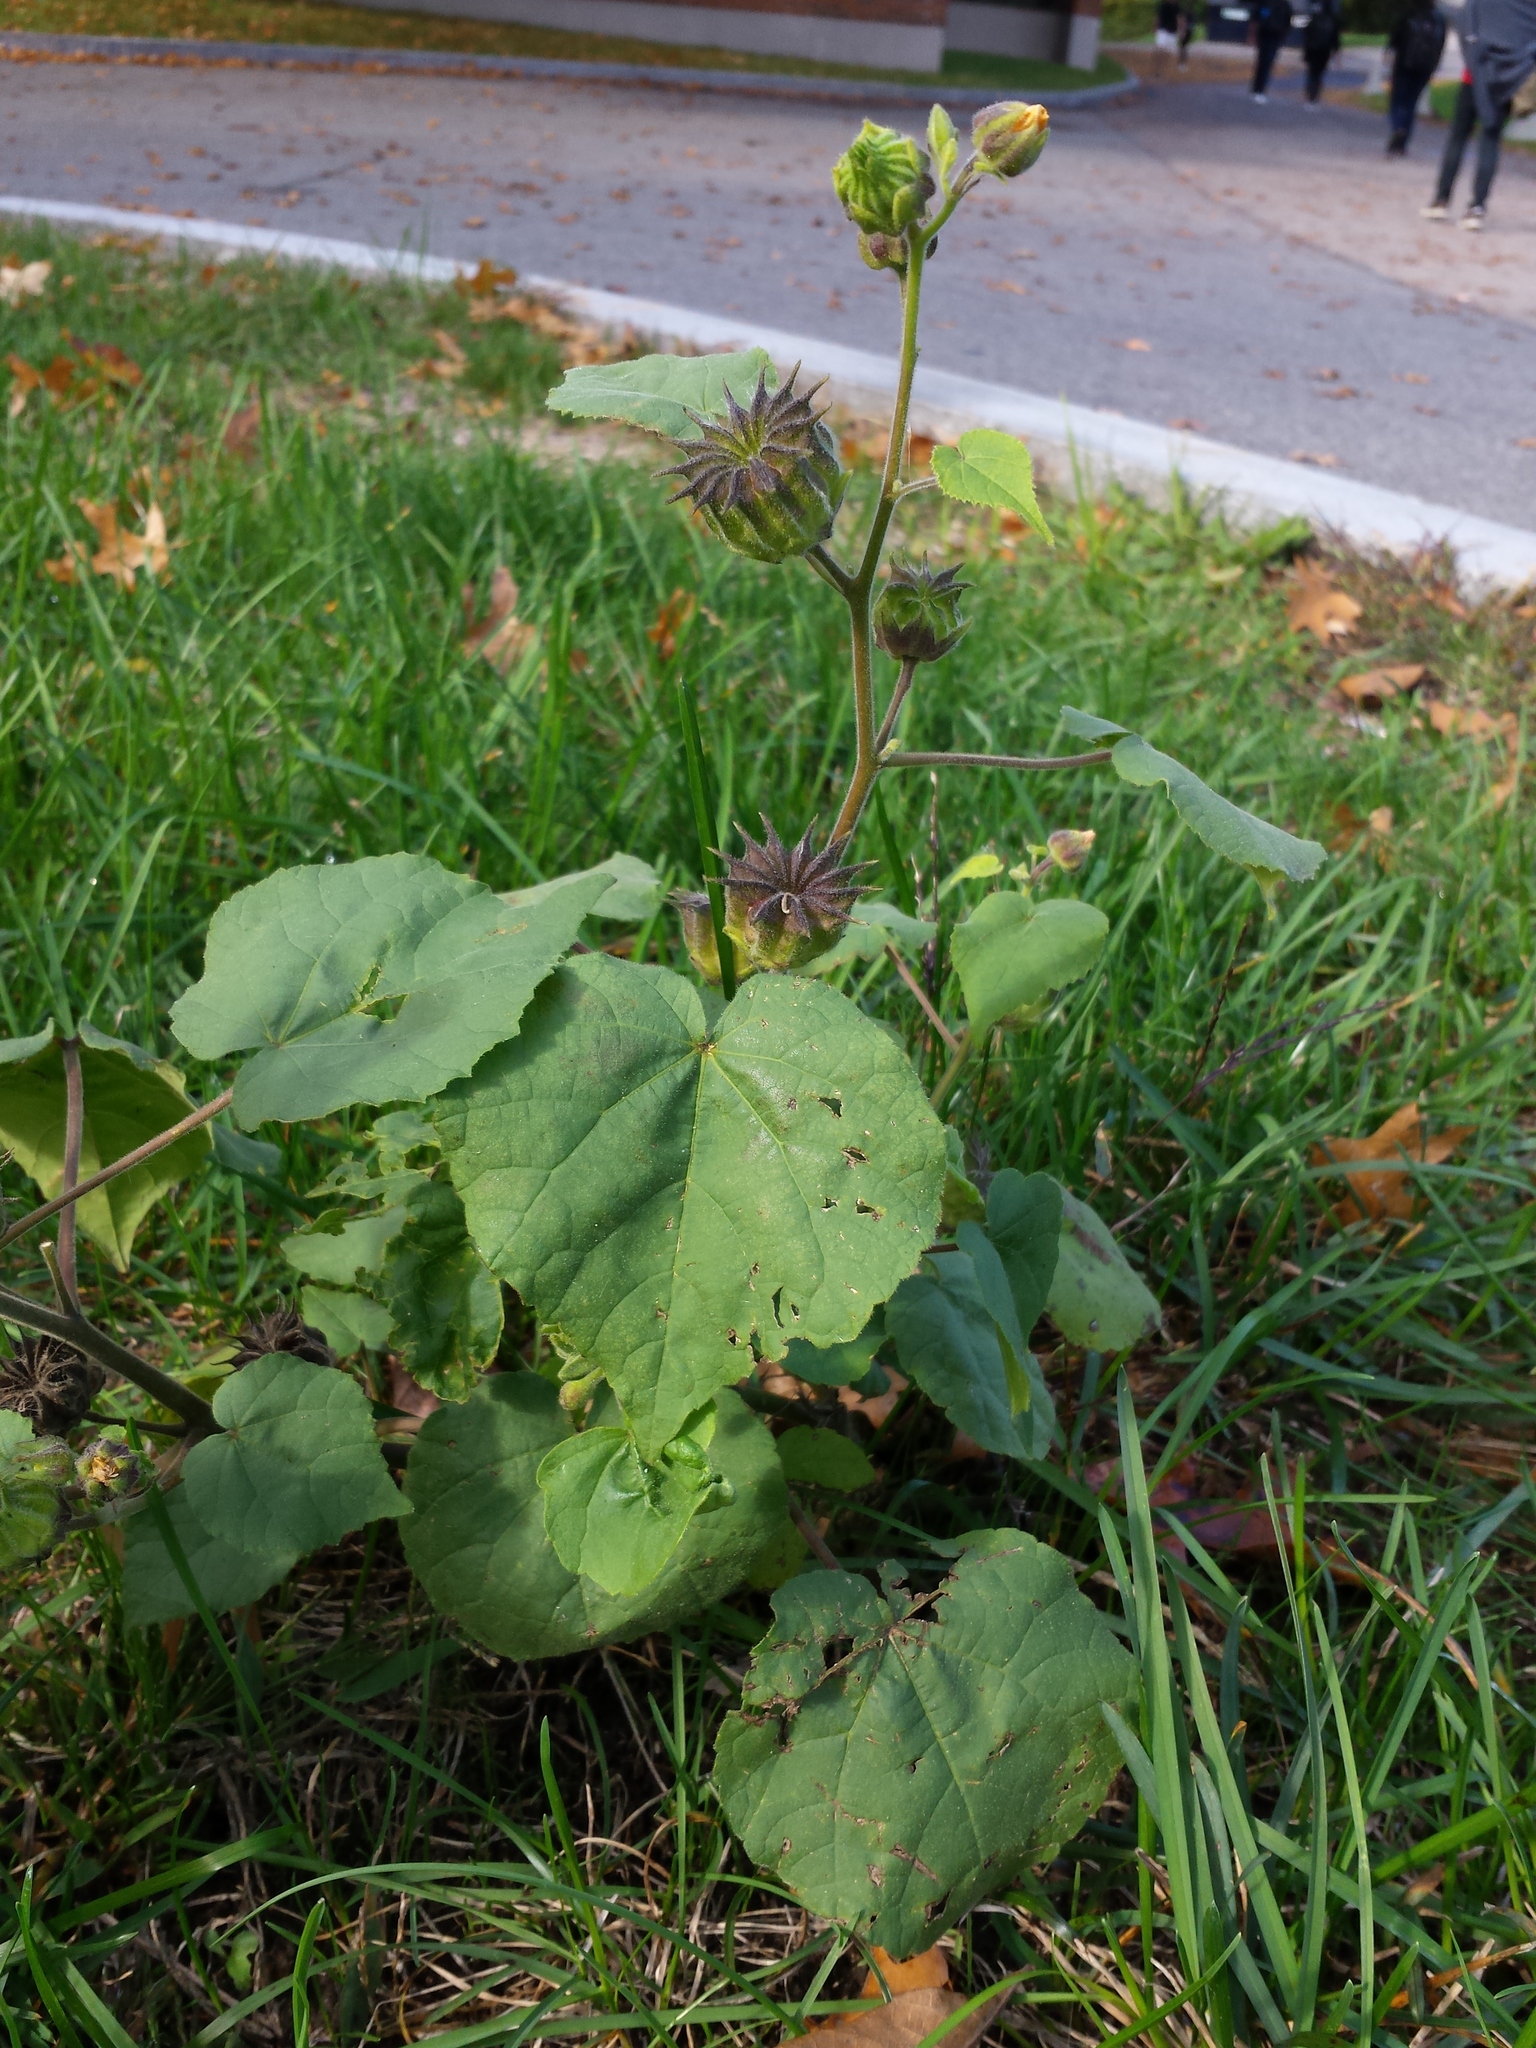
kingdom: Plantae
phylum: Tracheophyta
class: Magnoliopsida
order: Malvales
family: Malvaceae
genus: Abutilon
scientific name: Abutilon theophrasti
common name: Velvetleaf
